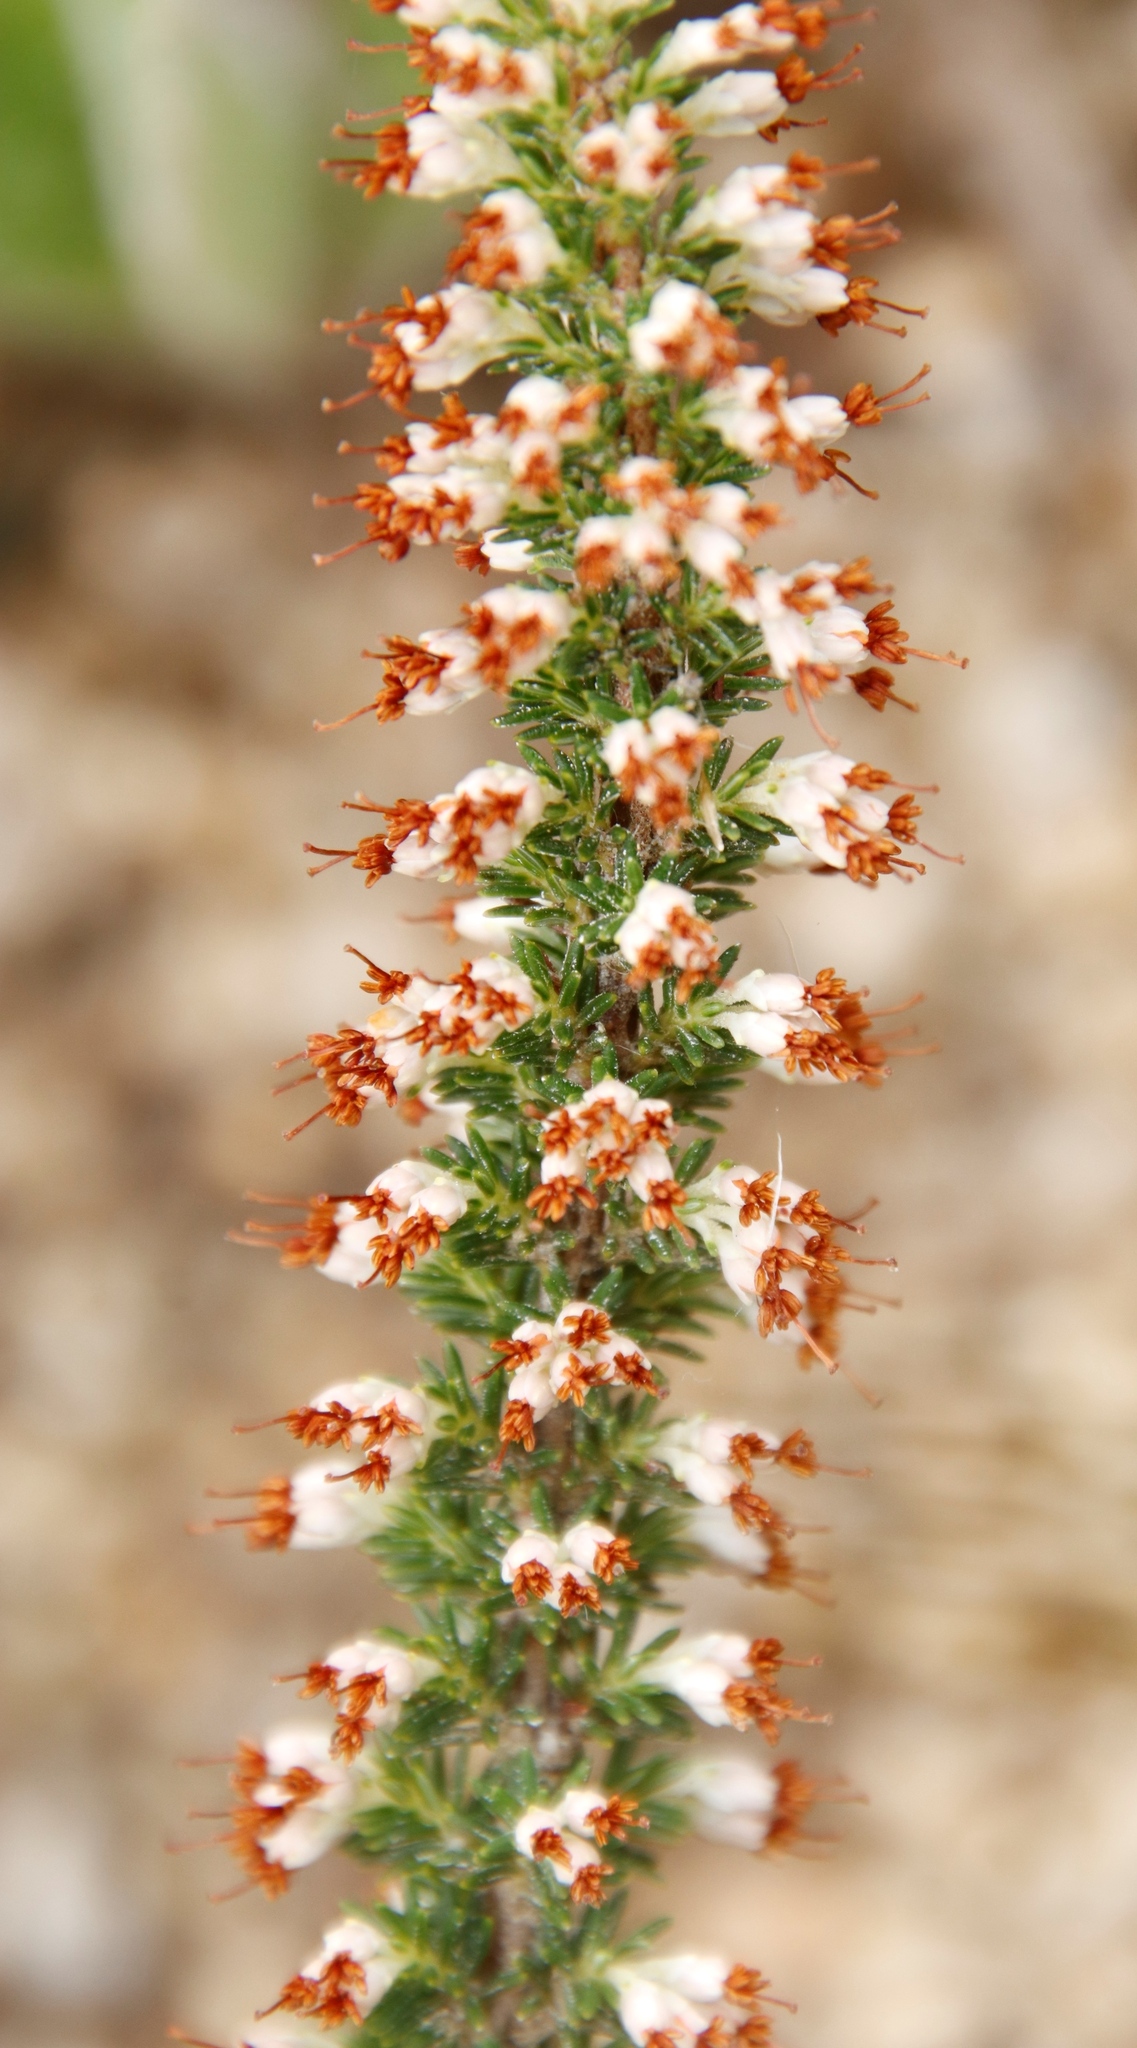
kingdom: Plantae
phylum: Tracheophyta
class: Magnoliopsida
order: Ericales
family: Ericaceae
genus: Erica
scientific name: Erica imbricata
